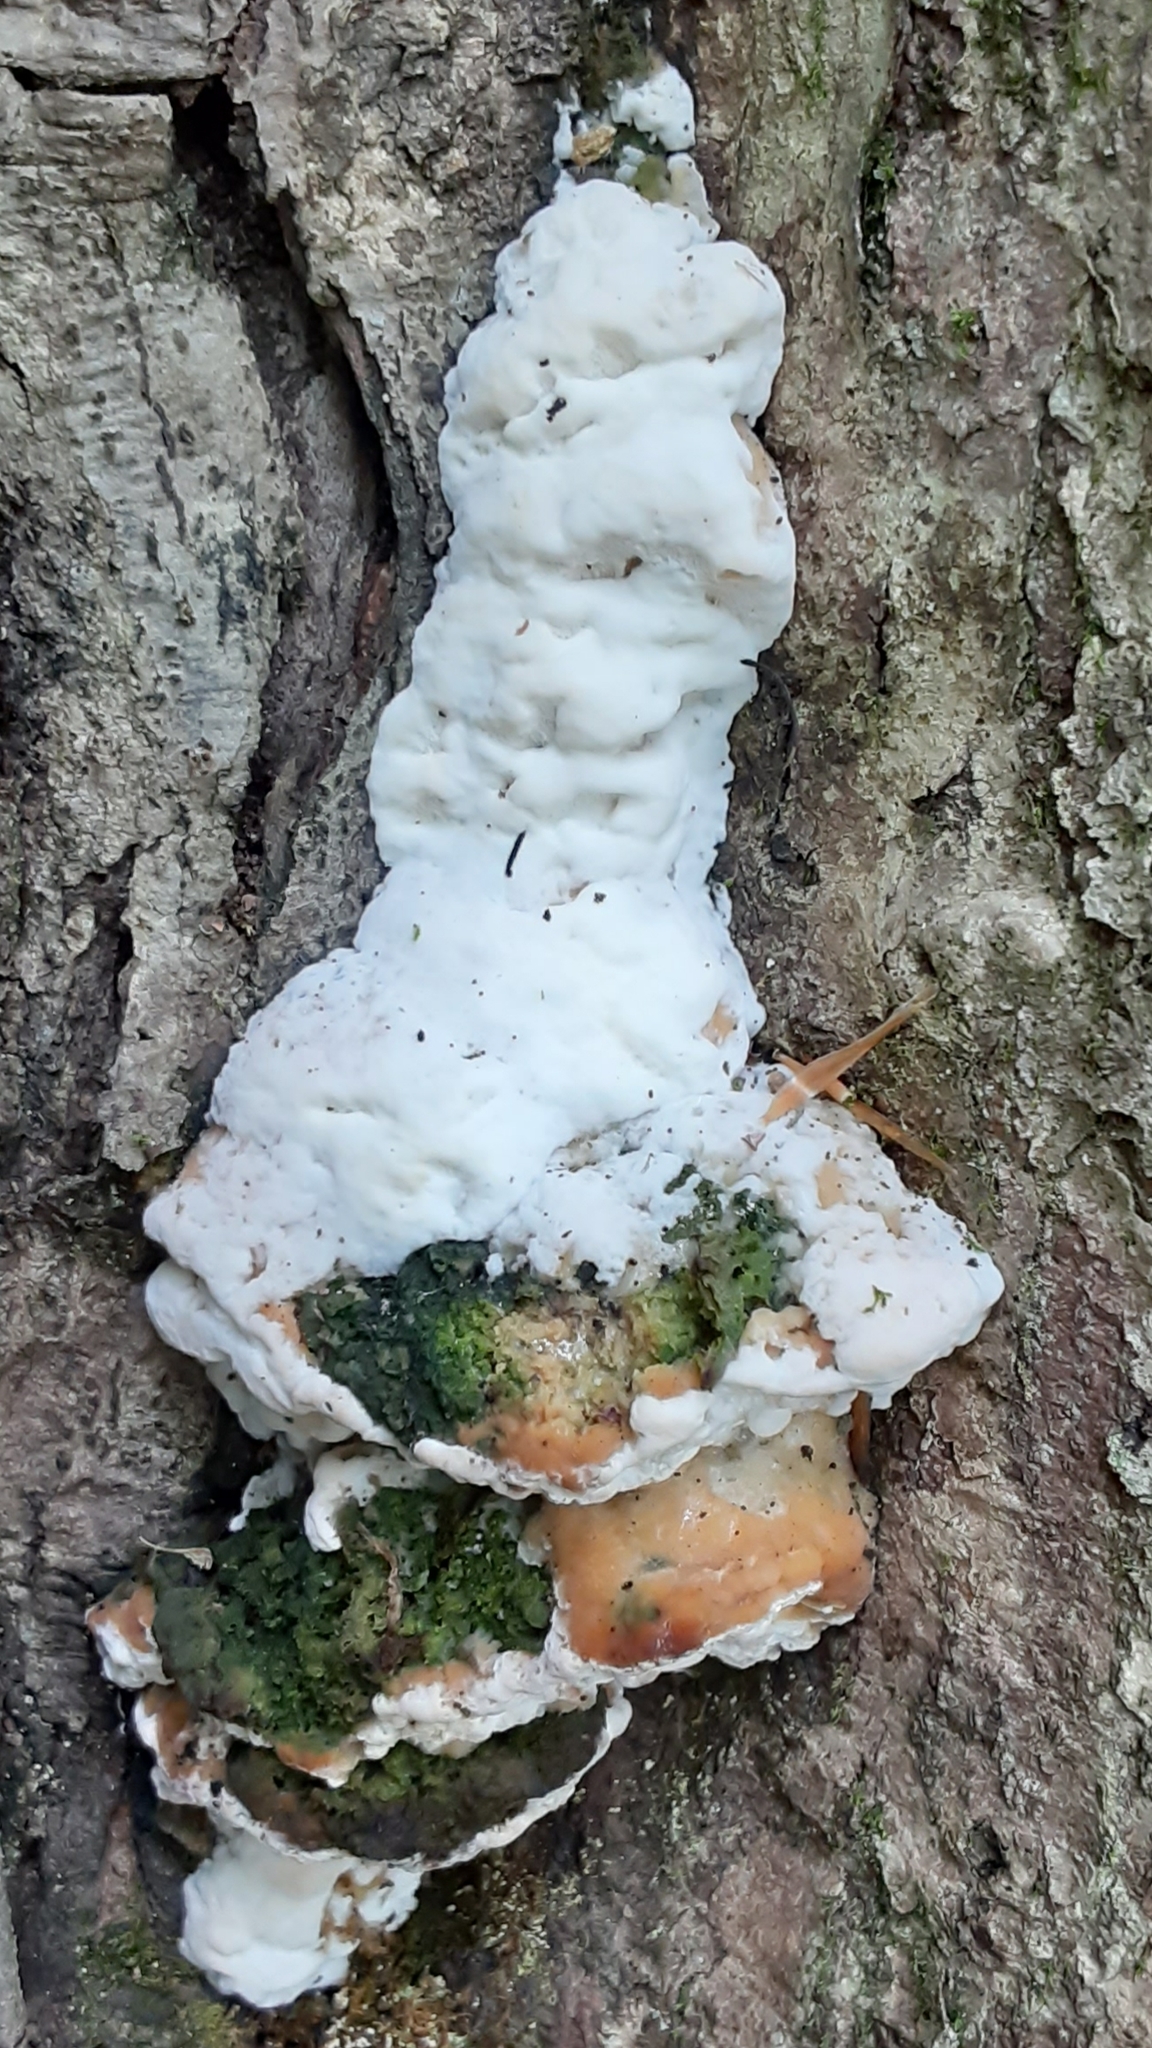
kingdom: Fungi
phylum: Basidiomycota
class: Agaricomycetes
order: Hymenochaetales
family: Oxyporaceae
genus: Oxyporus
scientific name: Oxyporus populinus
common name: Poplar bracket
